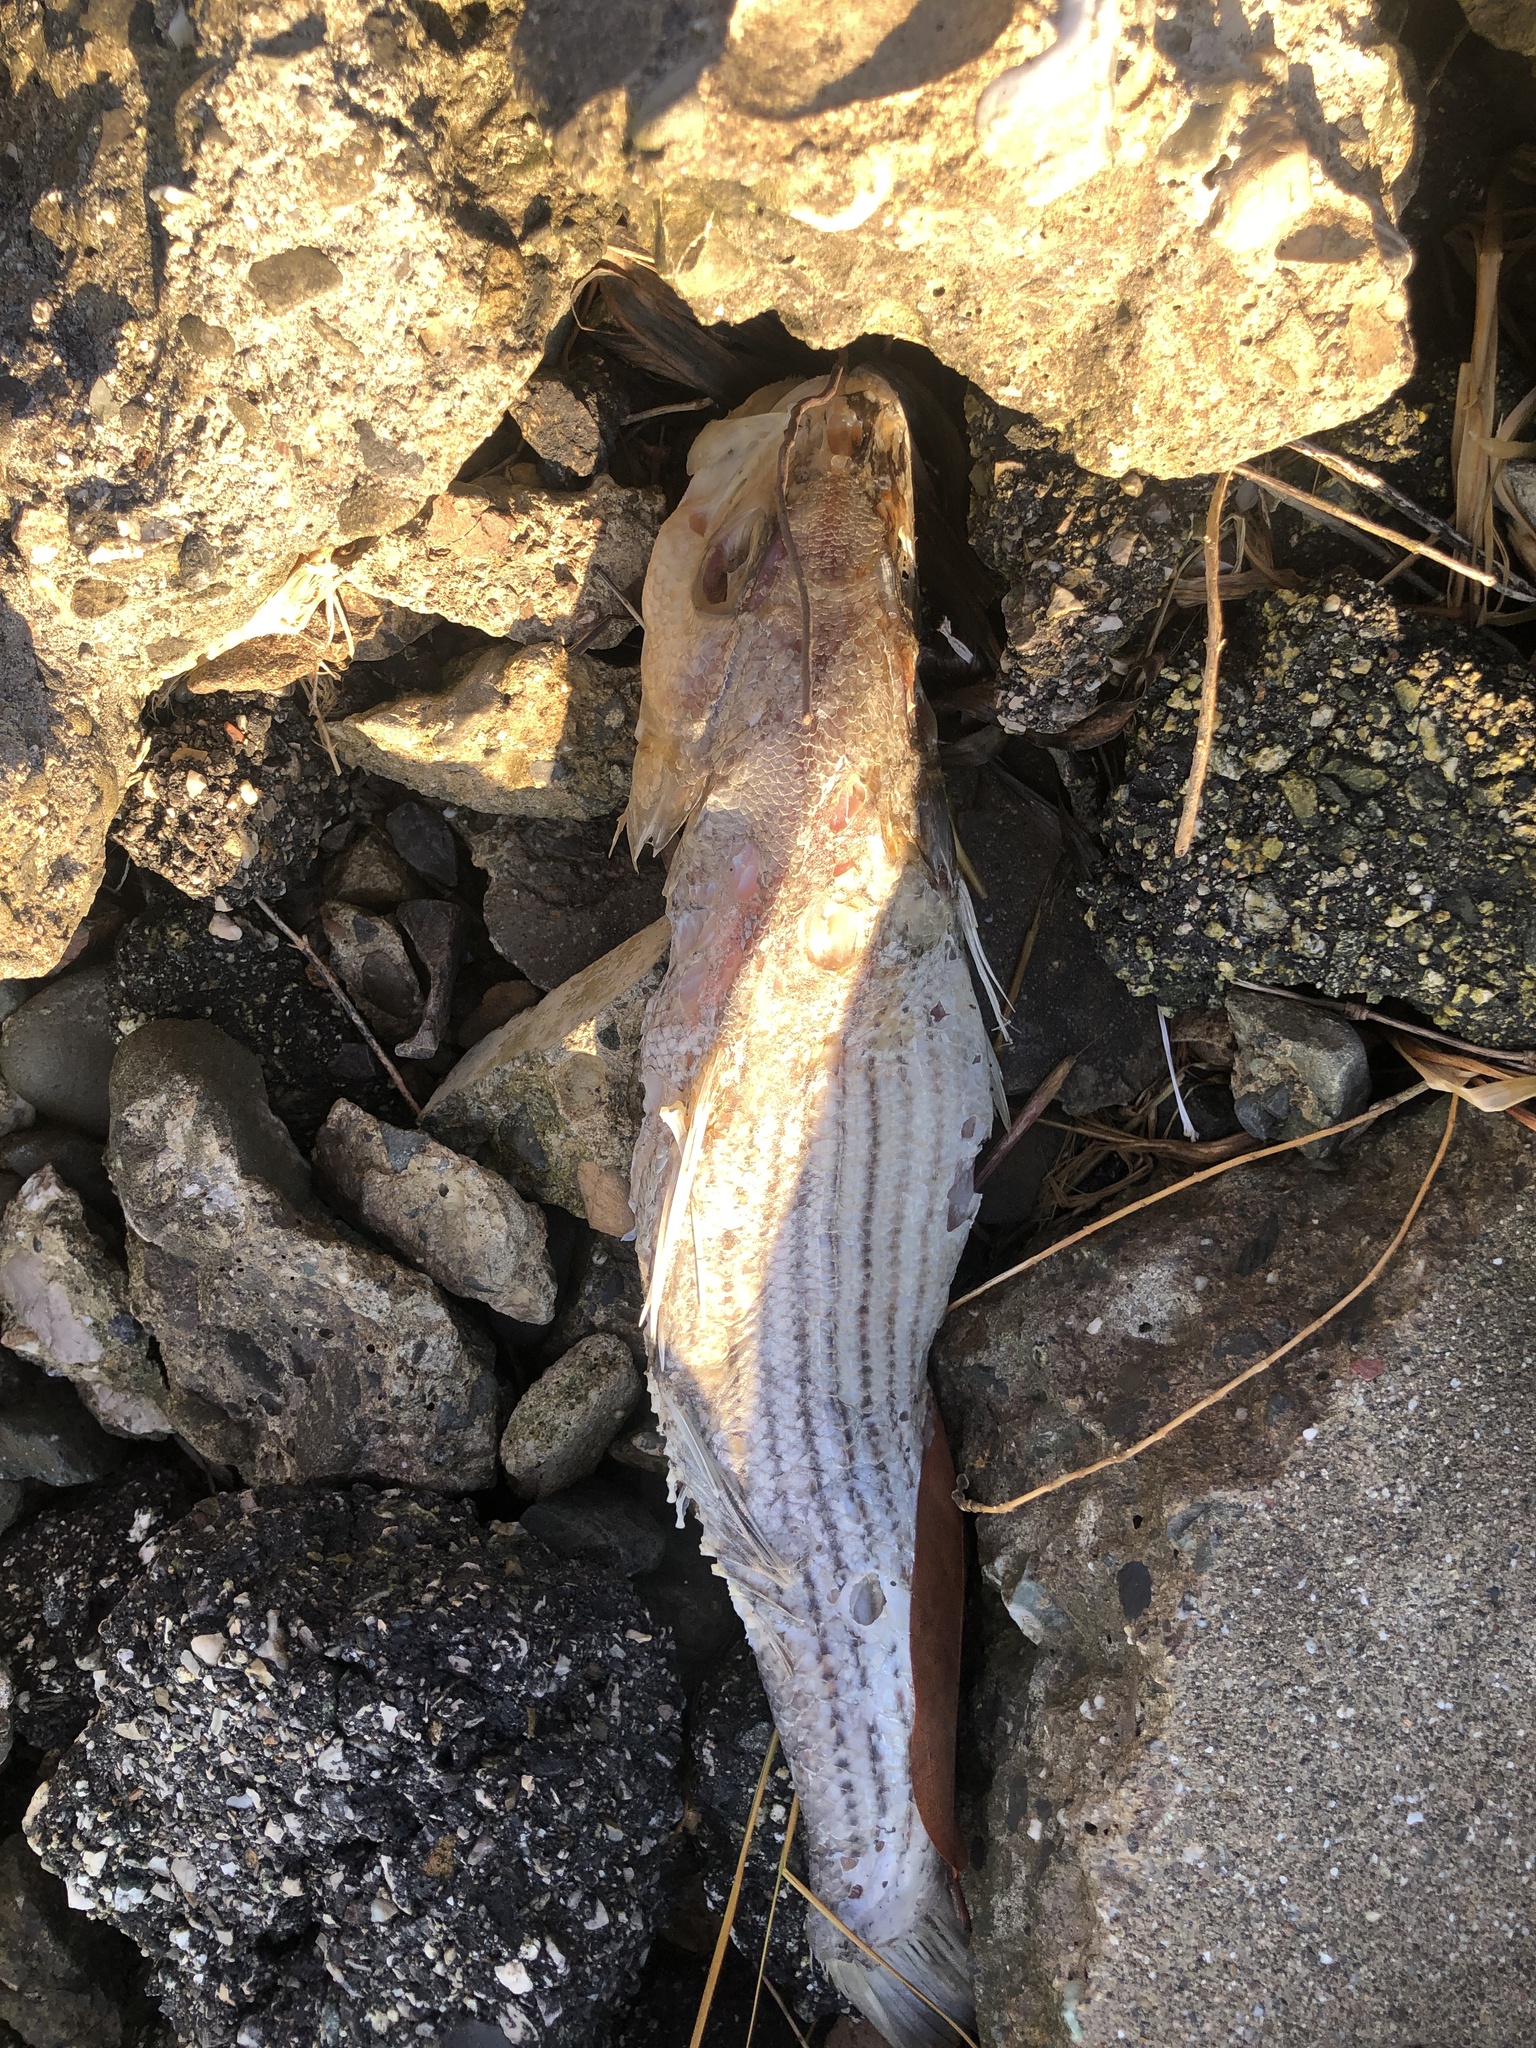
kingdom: Animalia
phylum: Chordata
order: Perciformes
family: Moronidae
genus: Morone
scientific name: Morone saxatilis
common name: Striped bass
